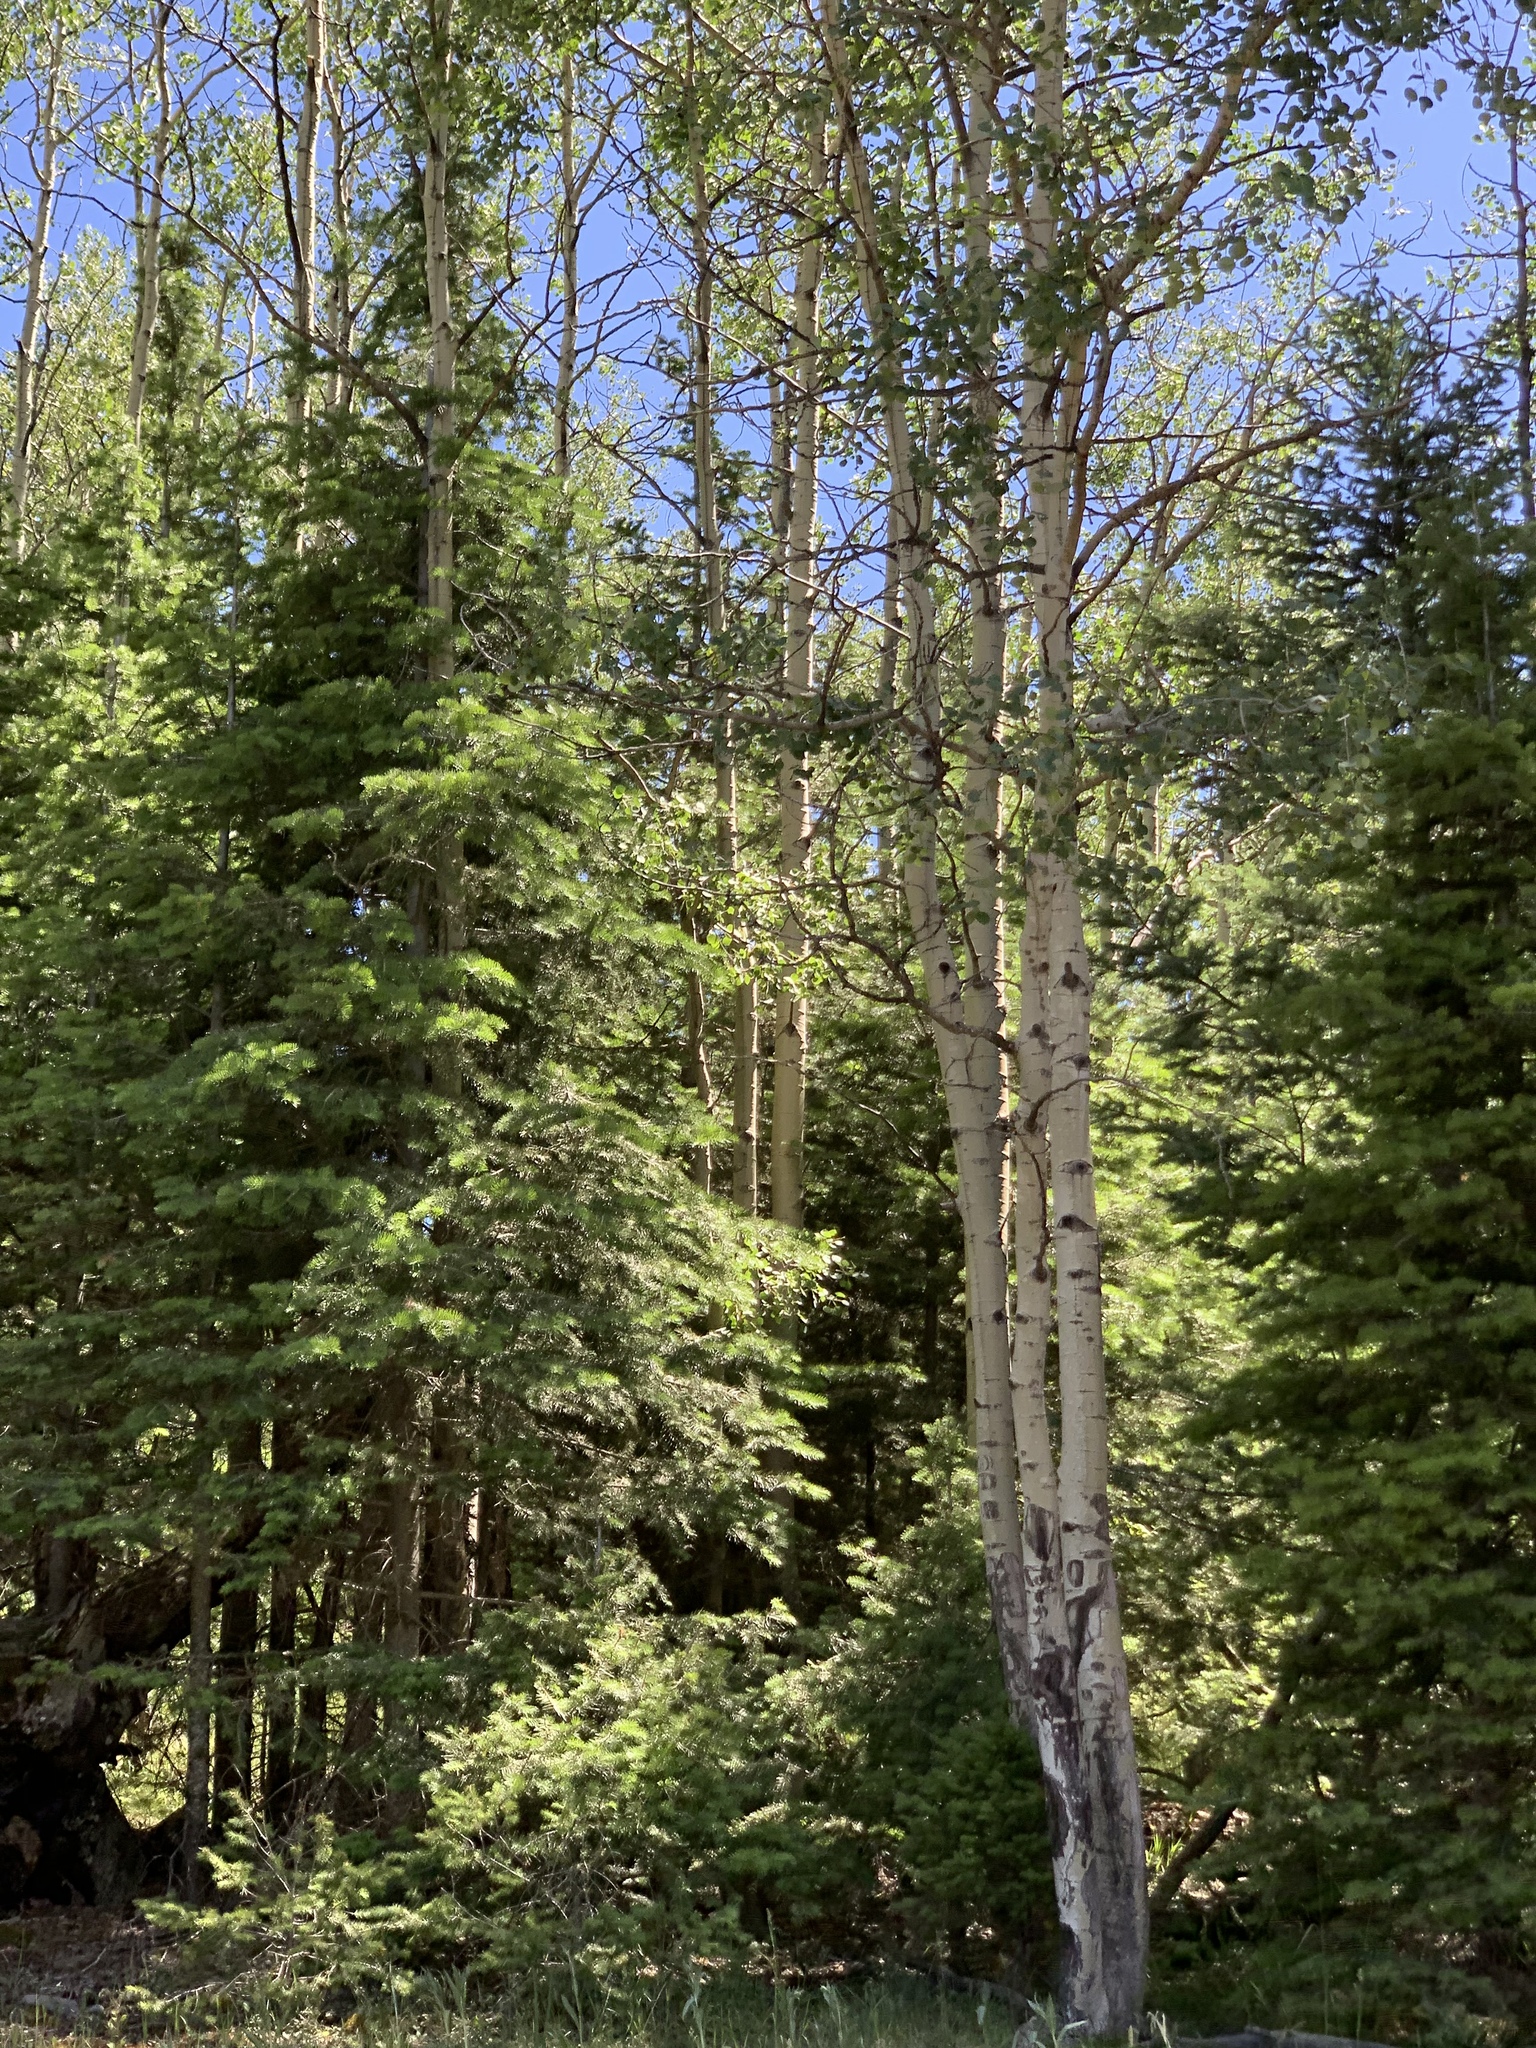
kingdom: Plantae
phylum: Tracheophyta
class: Magnoliopsida
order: Malpighiales
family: Salicaceae
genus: Populus
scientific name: Populus tremuloides
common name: Quaking aspen
